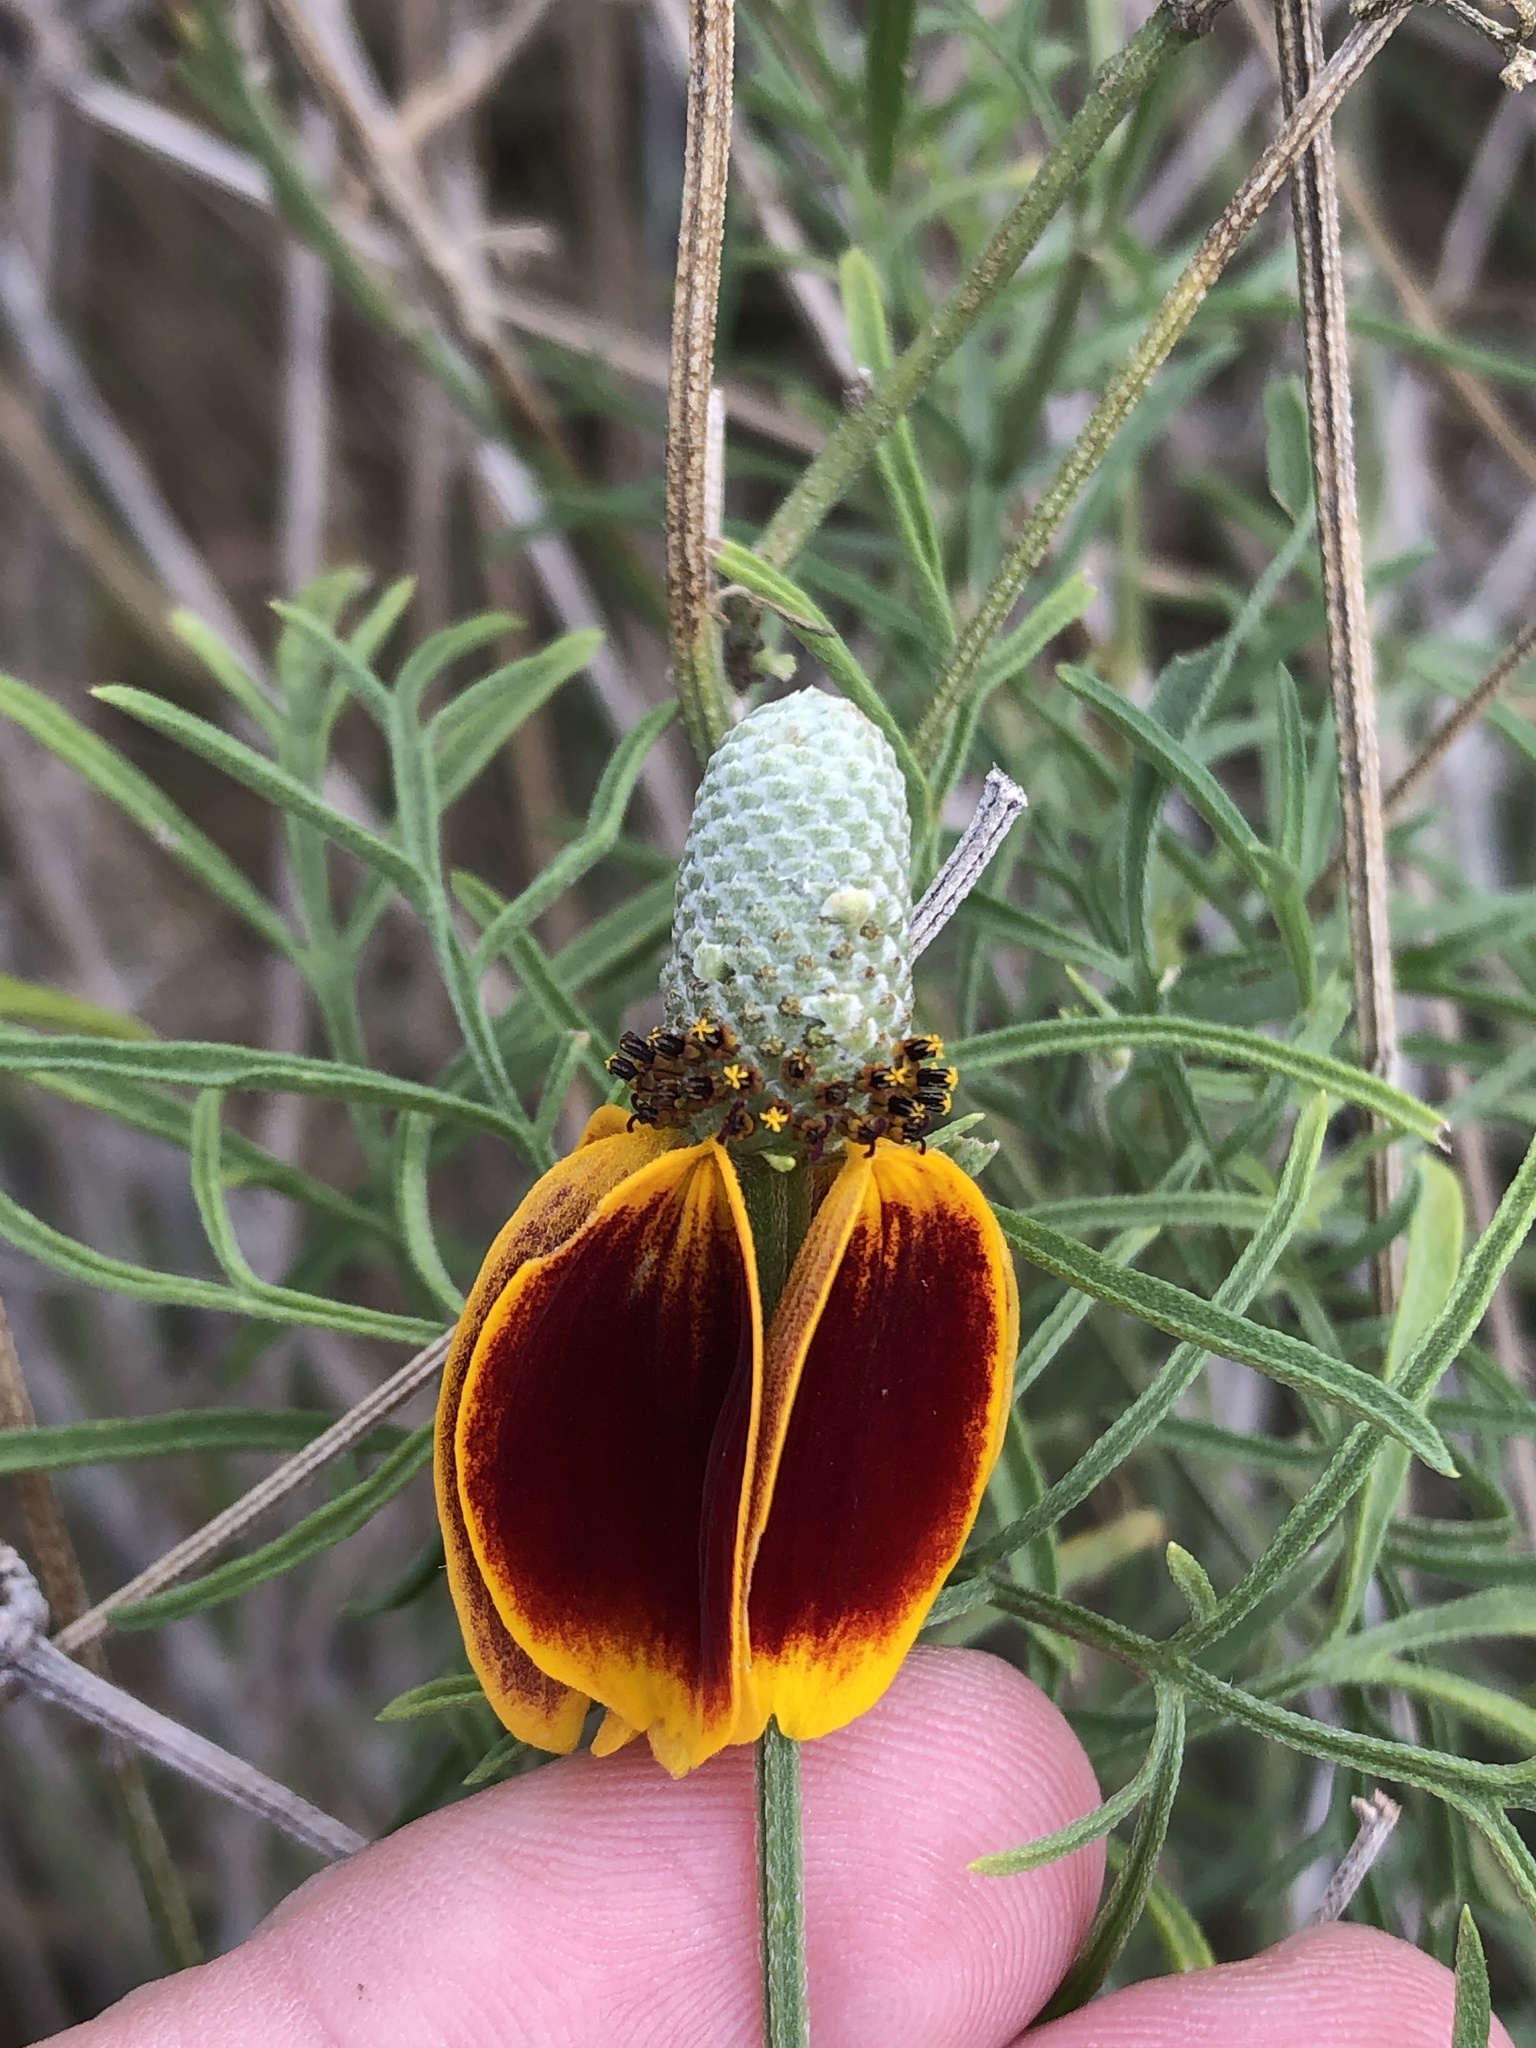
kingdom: Plantae
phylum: Tracheophyta
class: Magnoliopsida
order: Asterales
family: Asteraceae
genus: Ratibida
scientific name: Ratibida columnifera
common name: Prairie coneflower
